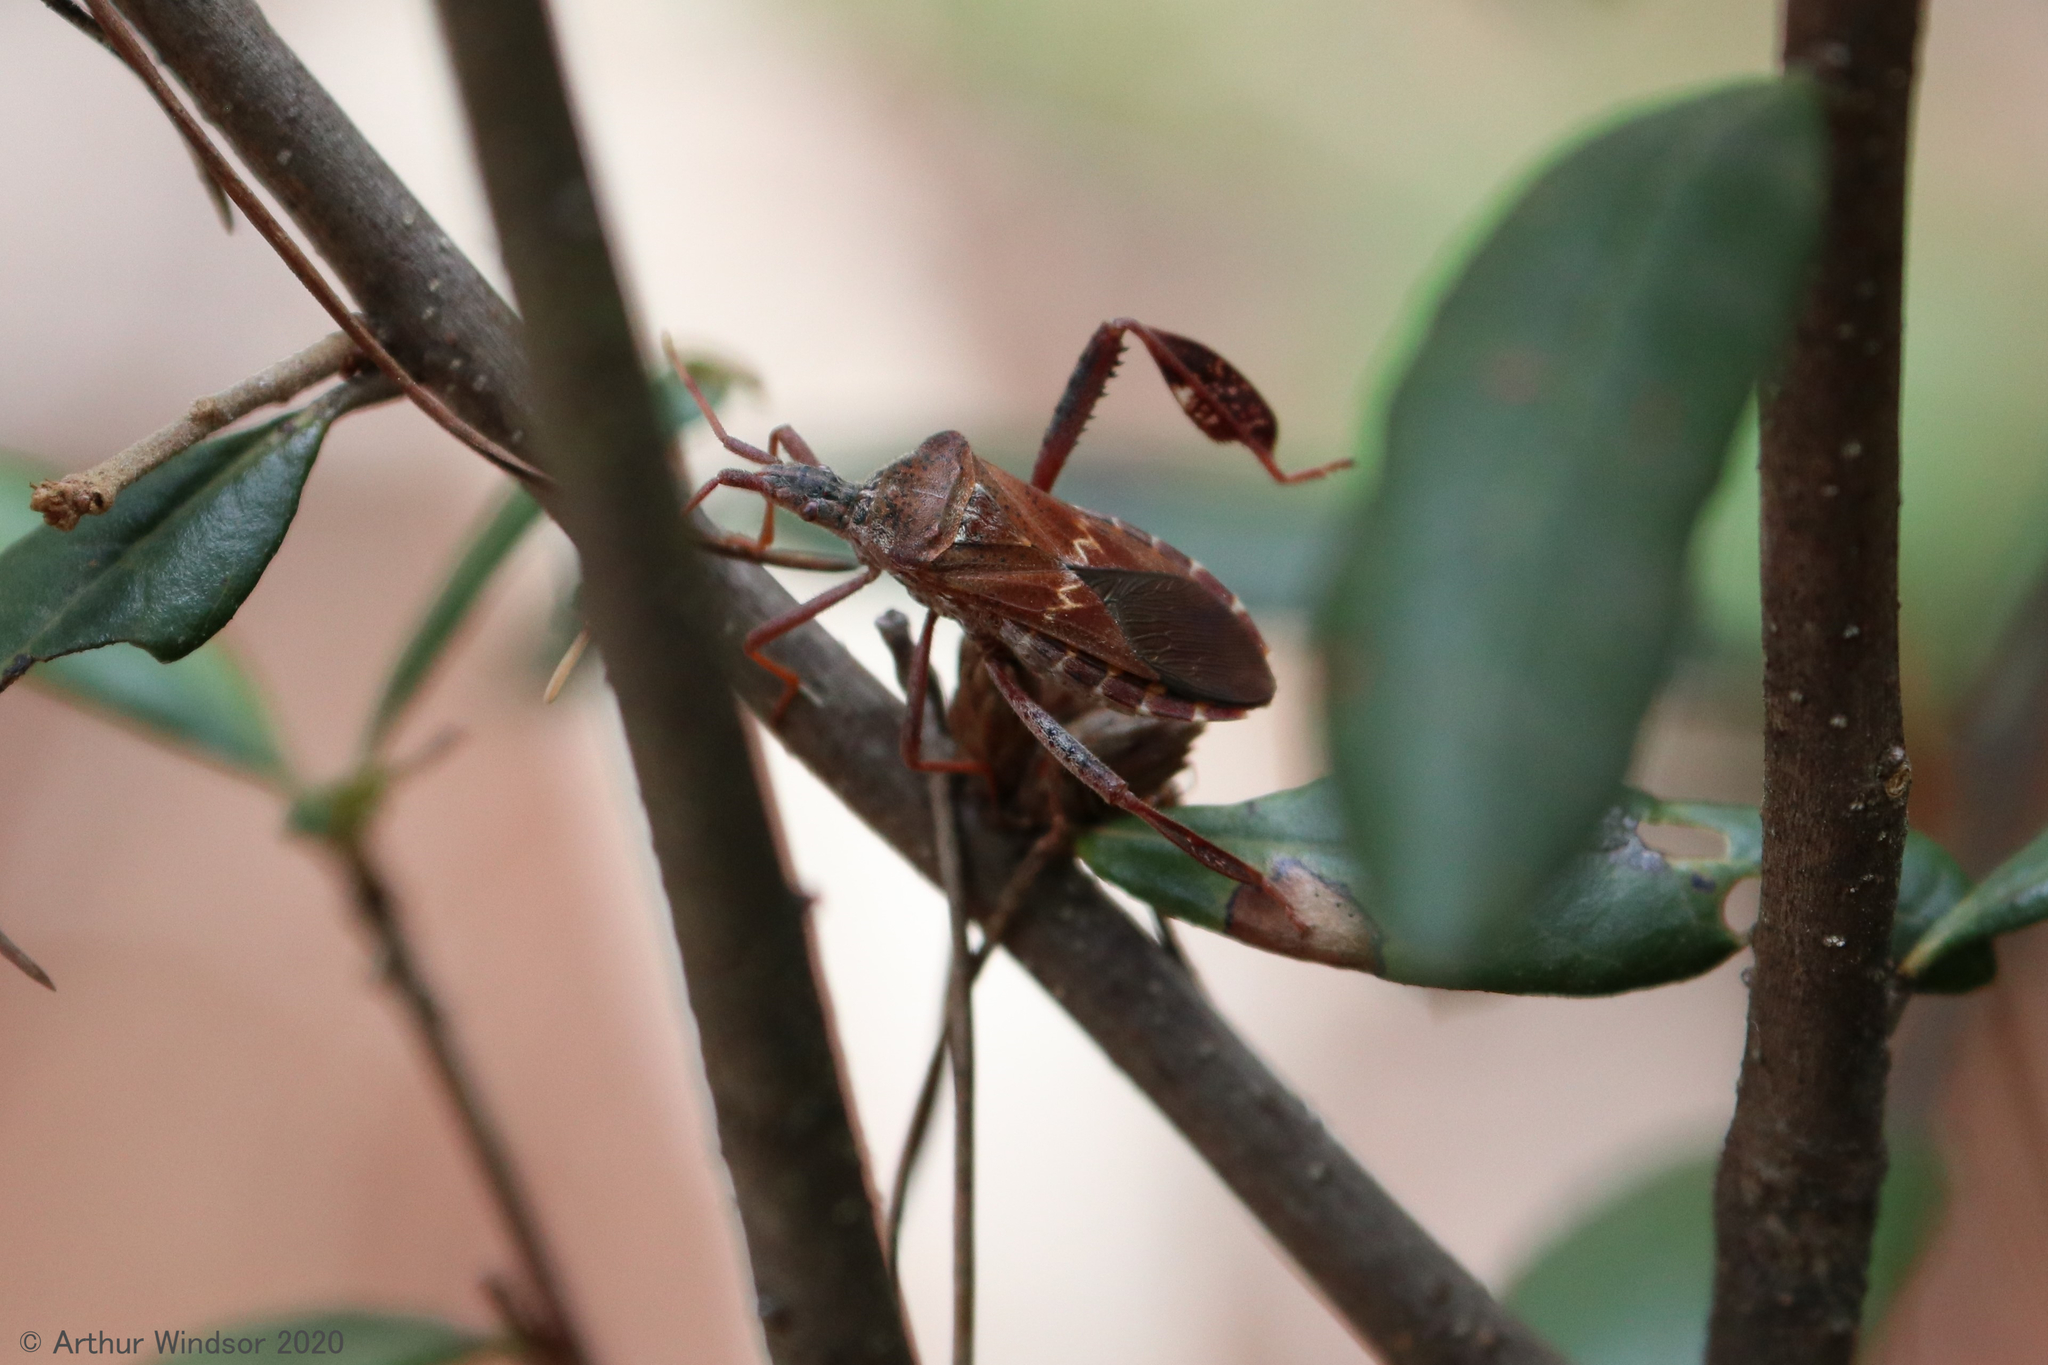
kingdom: Animalia
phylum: Arthropoda
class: Insecta
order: Hemiptera
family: Coreidae
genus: Leptoglossus
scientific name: Leptoglossus corculus
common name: Southern pine seed bug
